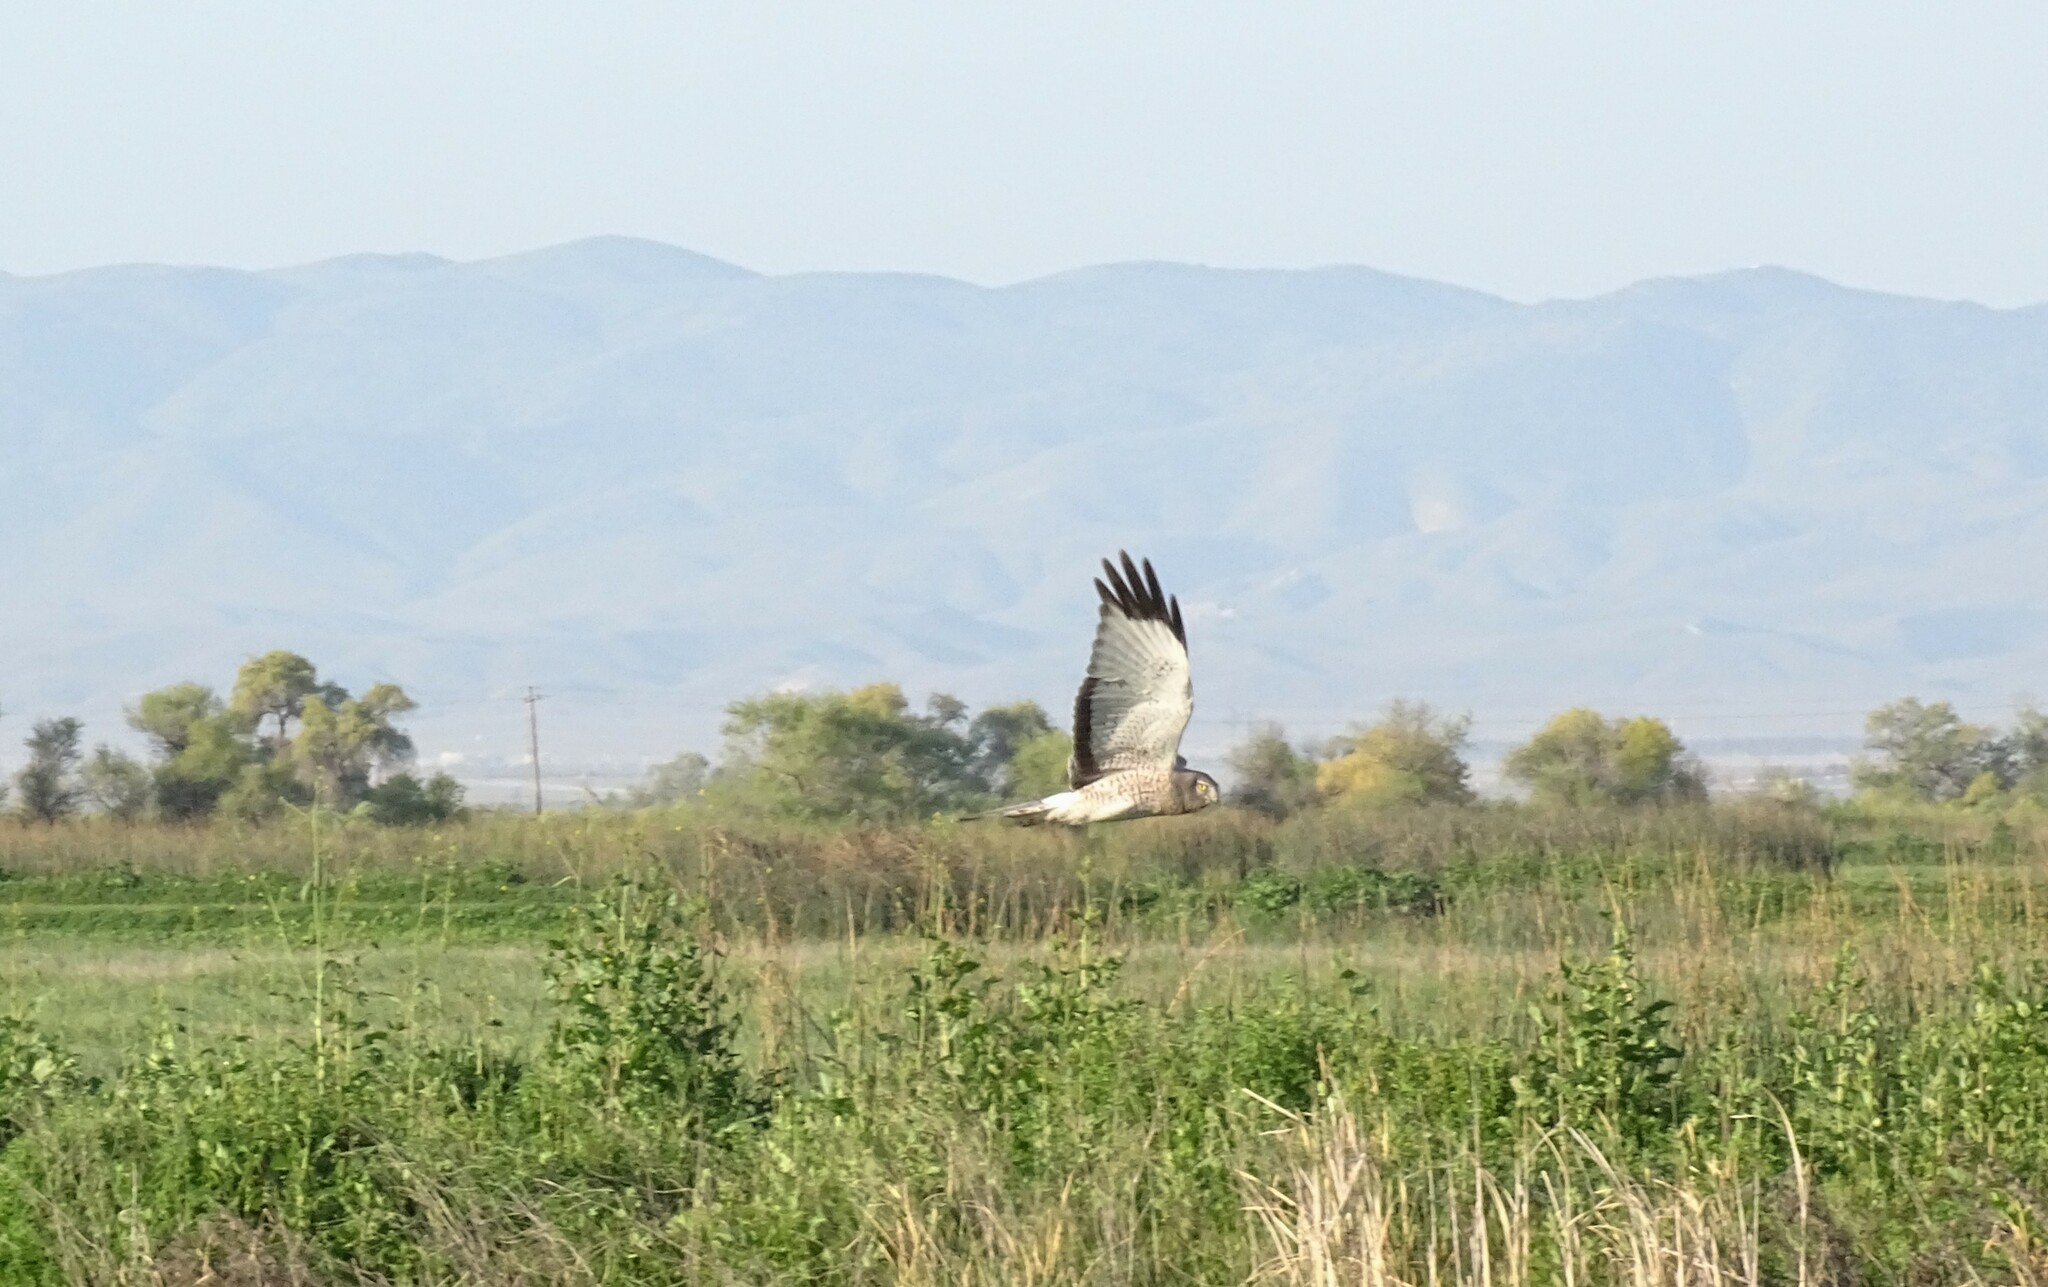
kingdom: Animalia
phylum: Chordata
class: Aves
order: Accipitriformes
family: Accipitridae
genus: Circus
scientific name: Circus cyaneus
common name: Hen harrier
